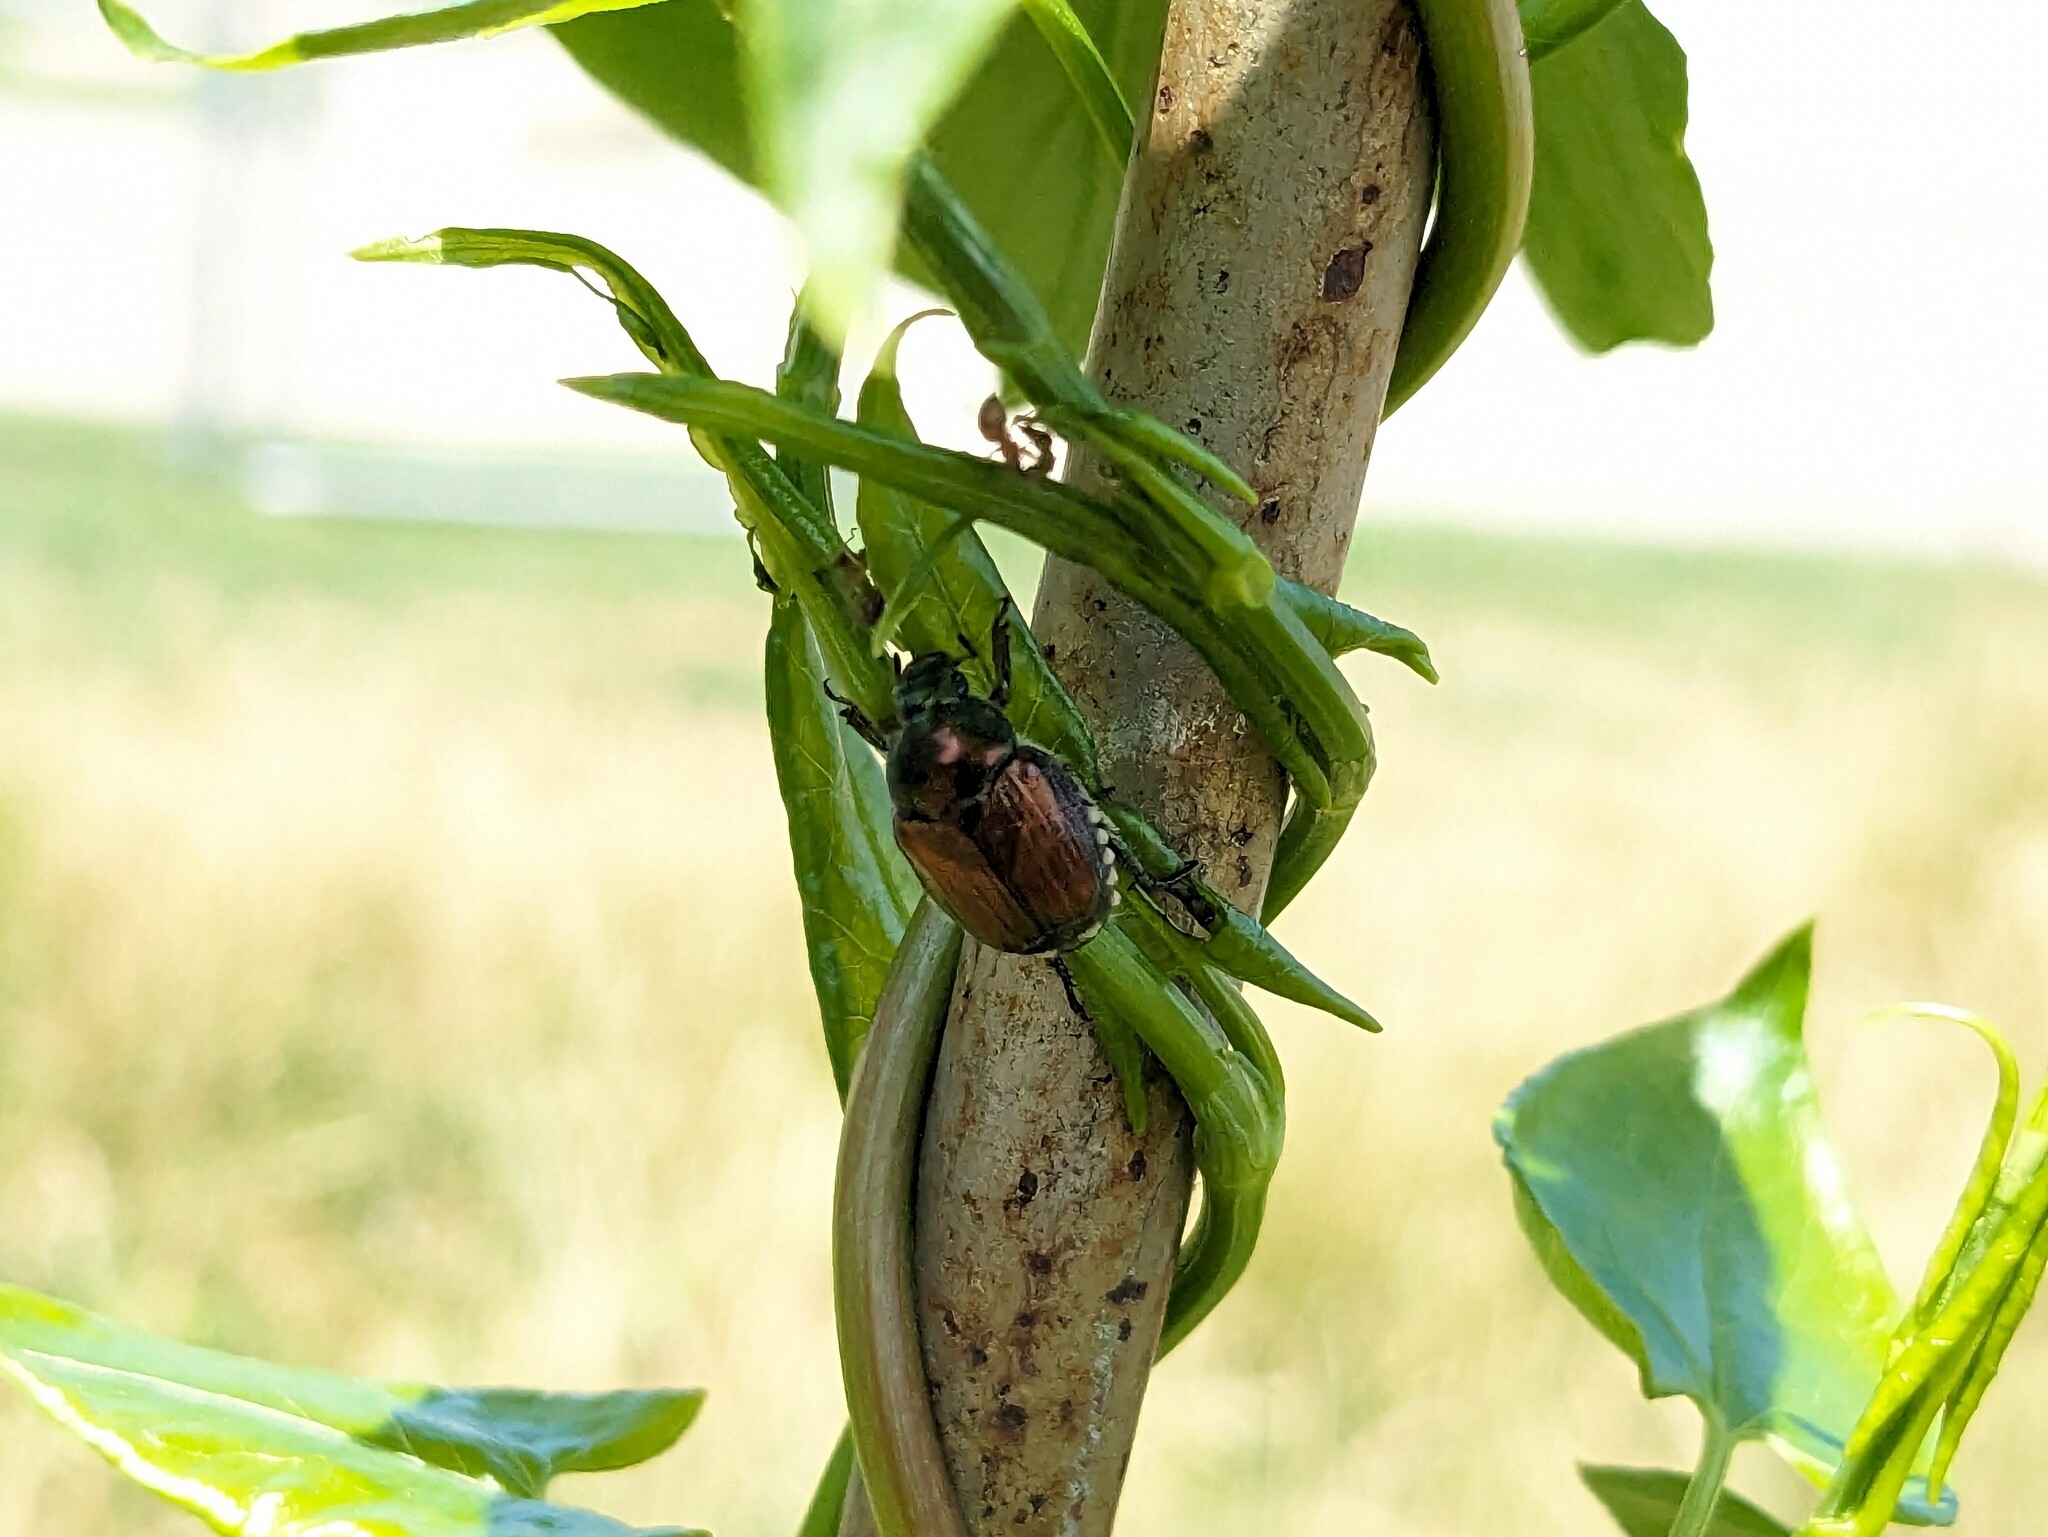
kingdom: Animalia
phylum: Arthropoda
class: Insecta
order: Coleoptera
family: Scarabaeidae
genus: Popillia
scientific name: Popillia japonica
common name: Japanese beetle
